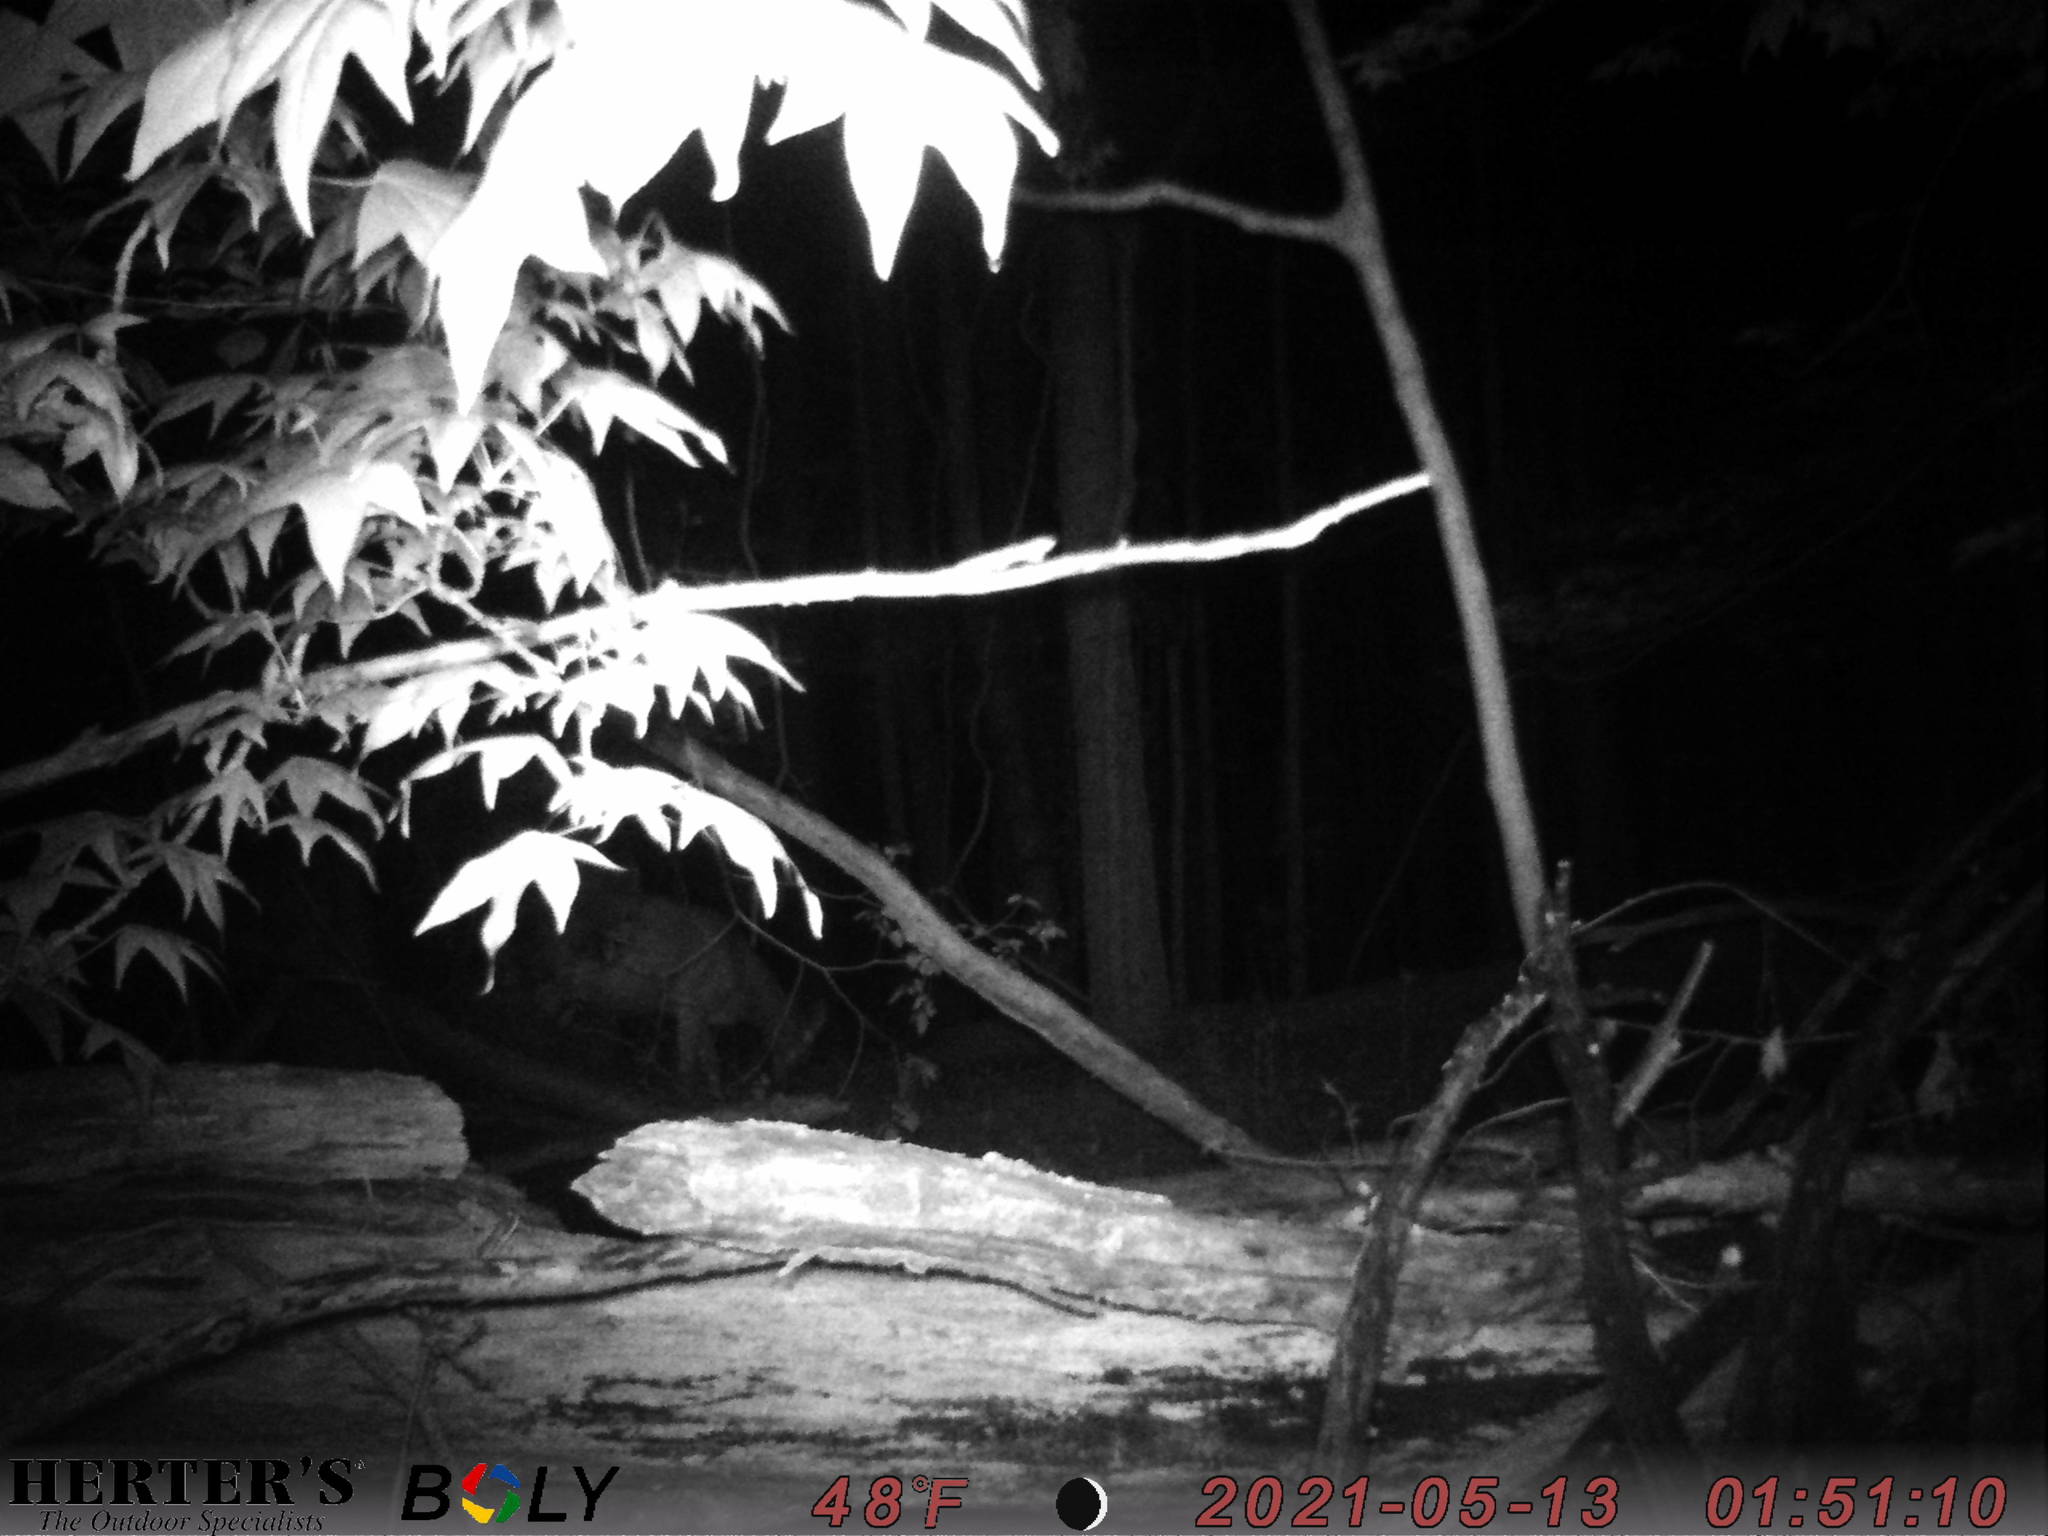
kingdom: Animalia
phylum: Chordata
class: Mammalia
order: Artiodactyla
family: Cervidae
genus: Odocoileus
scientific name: Odocoileus virginianus
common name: White-tailed deer
